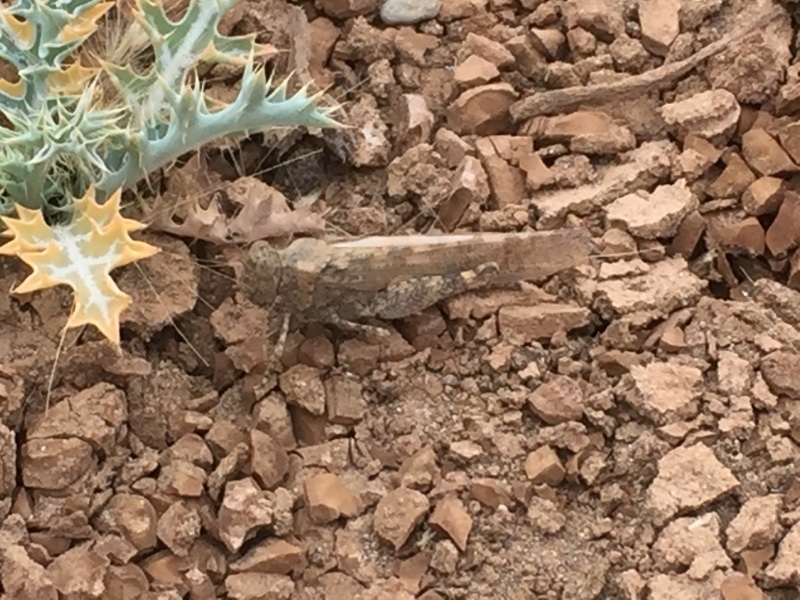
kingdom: Animalia
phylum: Arthropoda
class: Insecta
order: Orthoptera
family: Acrididae
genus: Sphingonotus
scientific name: Sphingonotus rubescens
